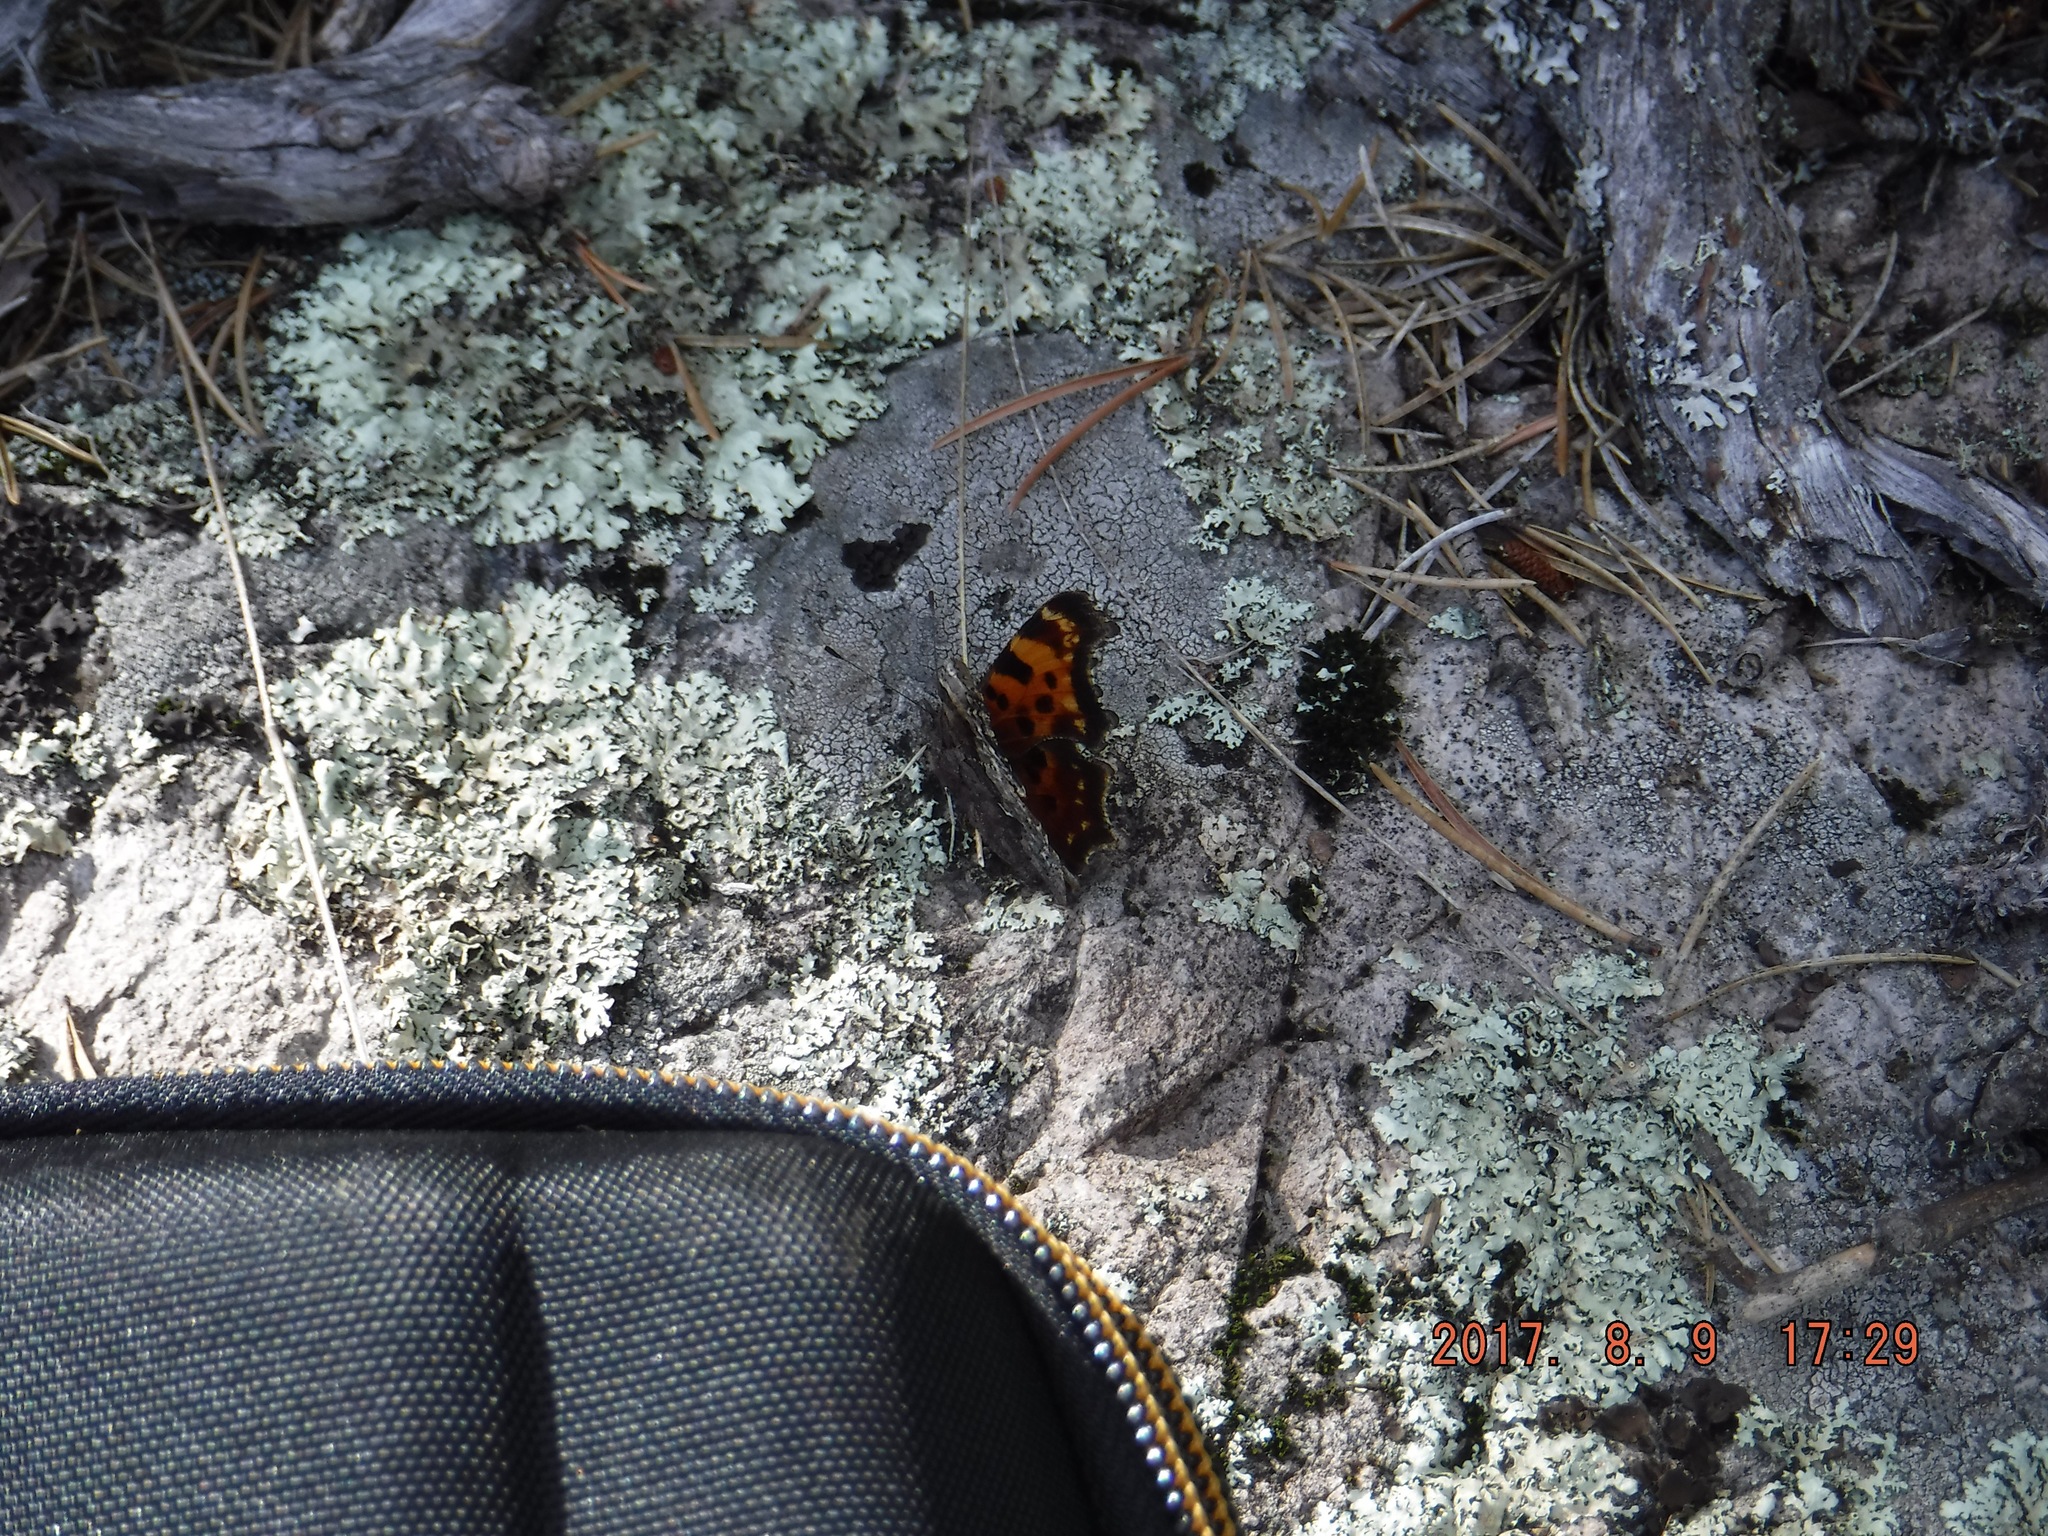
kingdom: Animalia
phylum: Arthropoda
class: Insecta
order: Lepidoptera
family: Nymphalidae
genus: Polygonia
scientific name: Polygonia faunus
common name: Green comma
